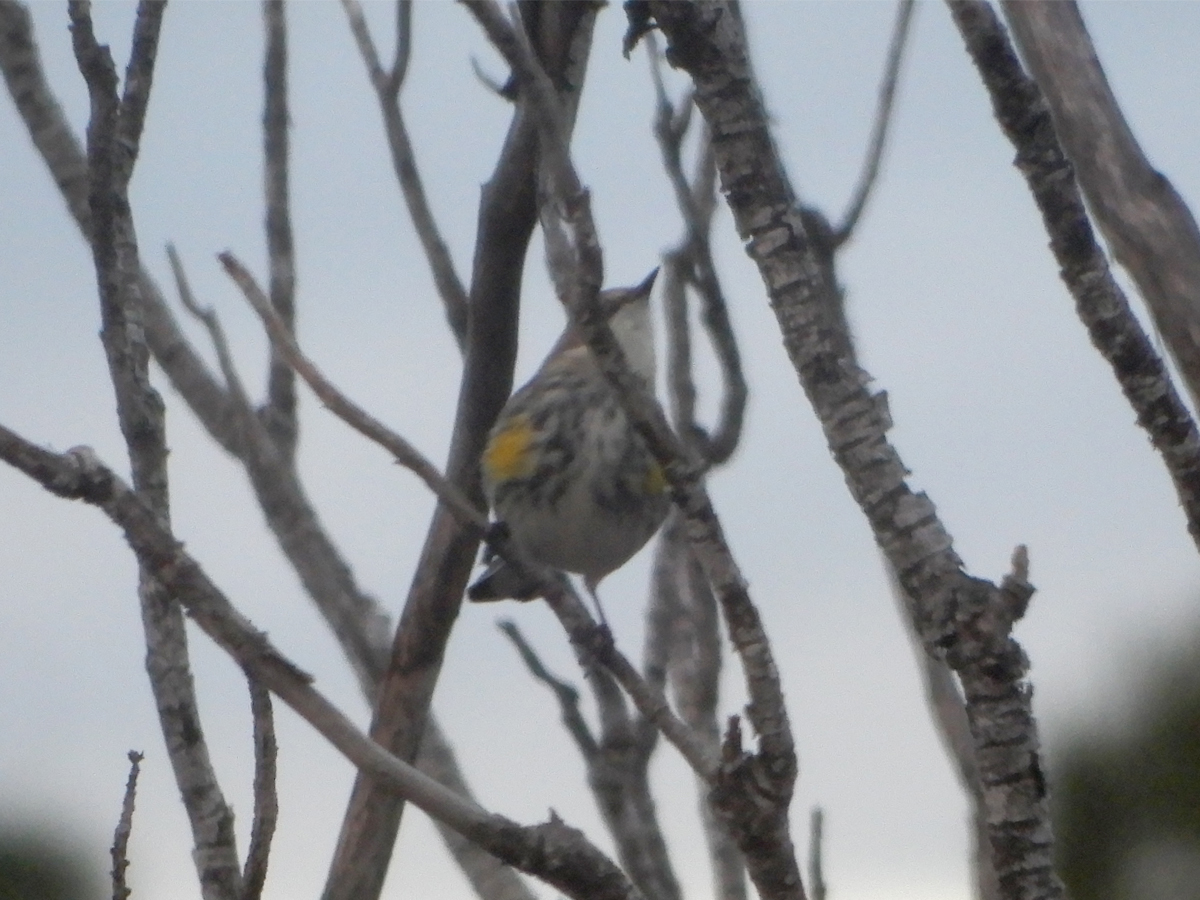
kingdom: Animalia
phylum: Chordata
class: Aves
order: Passeriformes
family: Parulidae
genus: Setophaga
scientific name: Setophaga coronata
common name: Myrtle warbler
